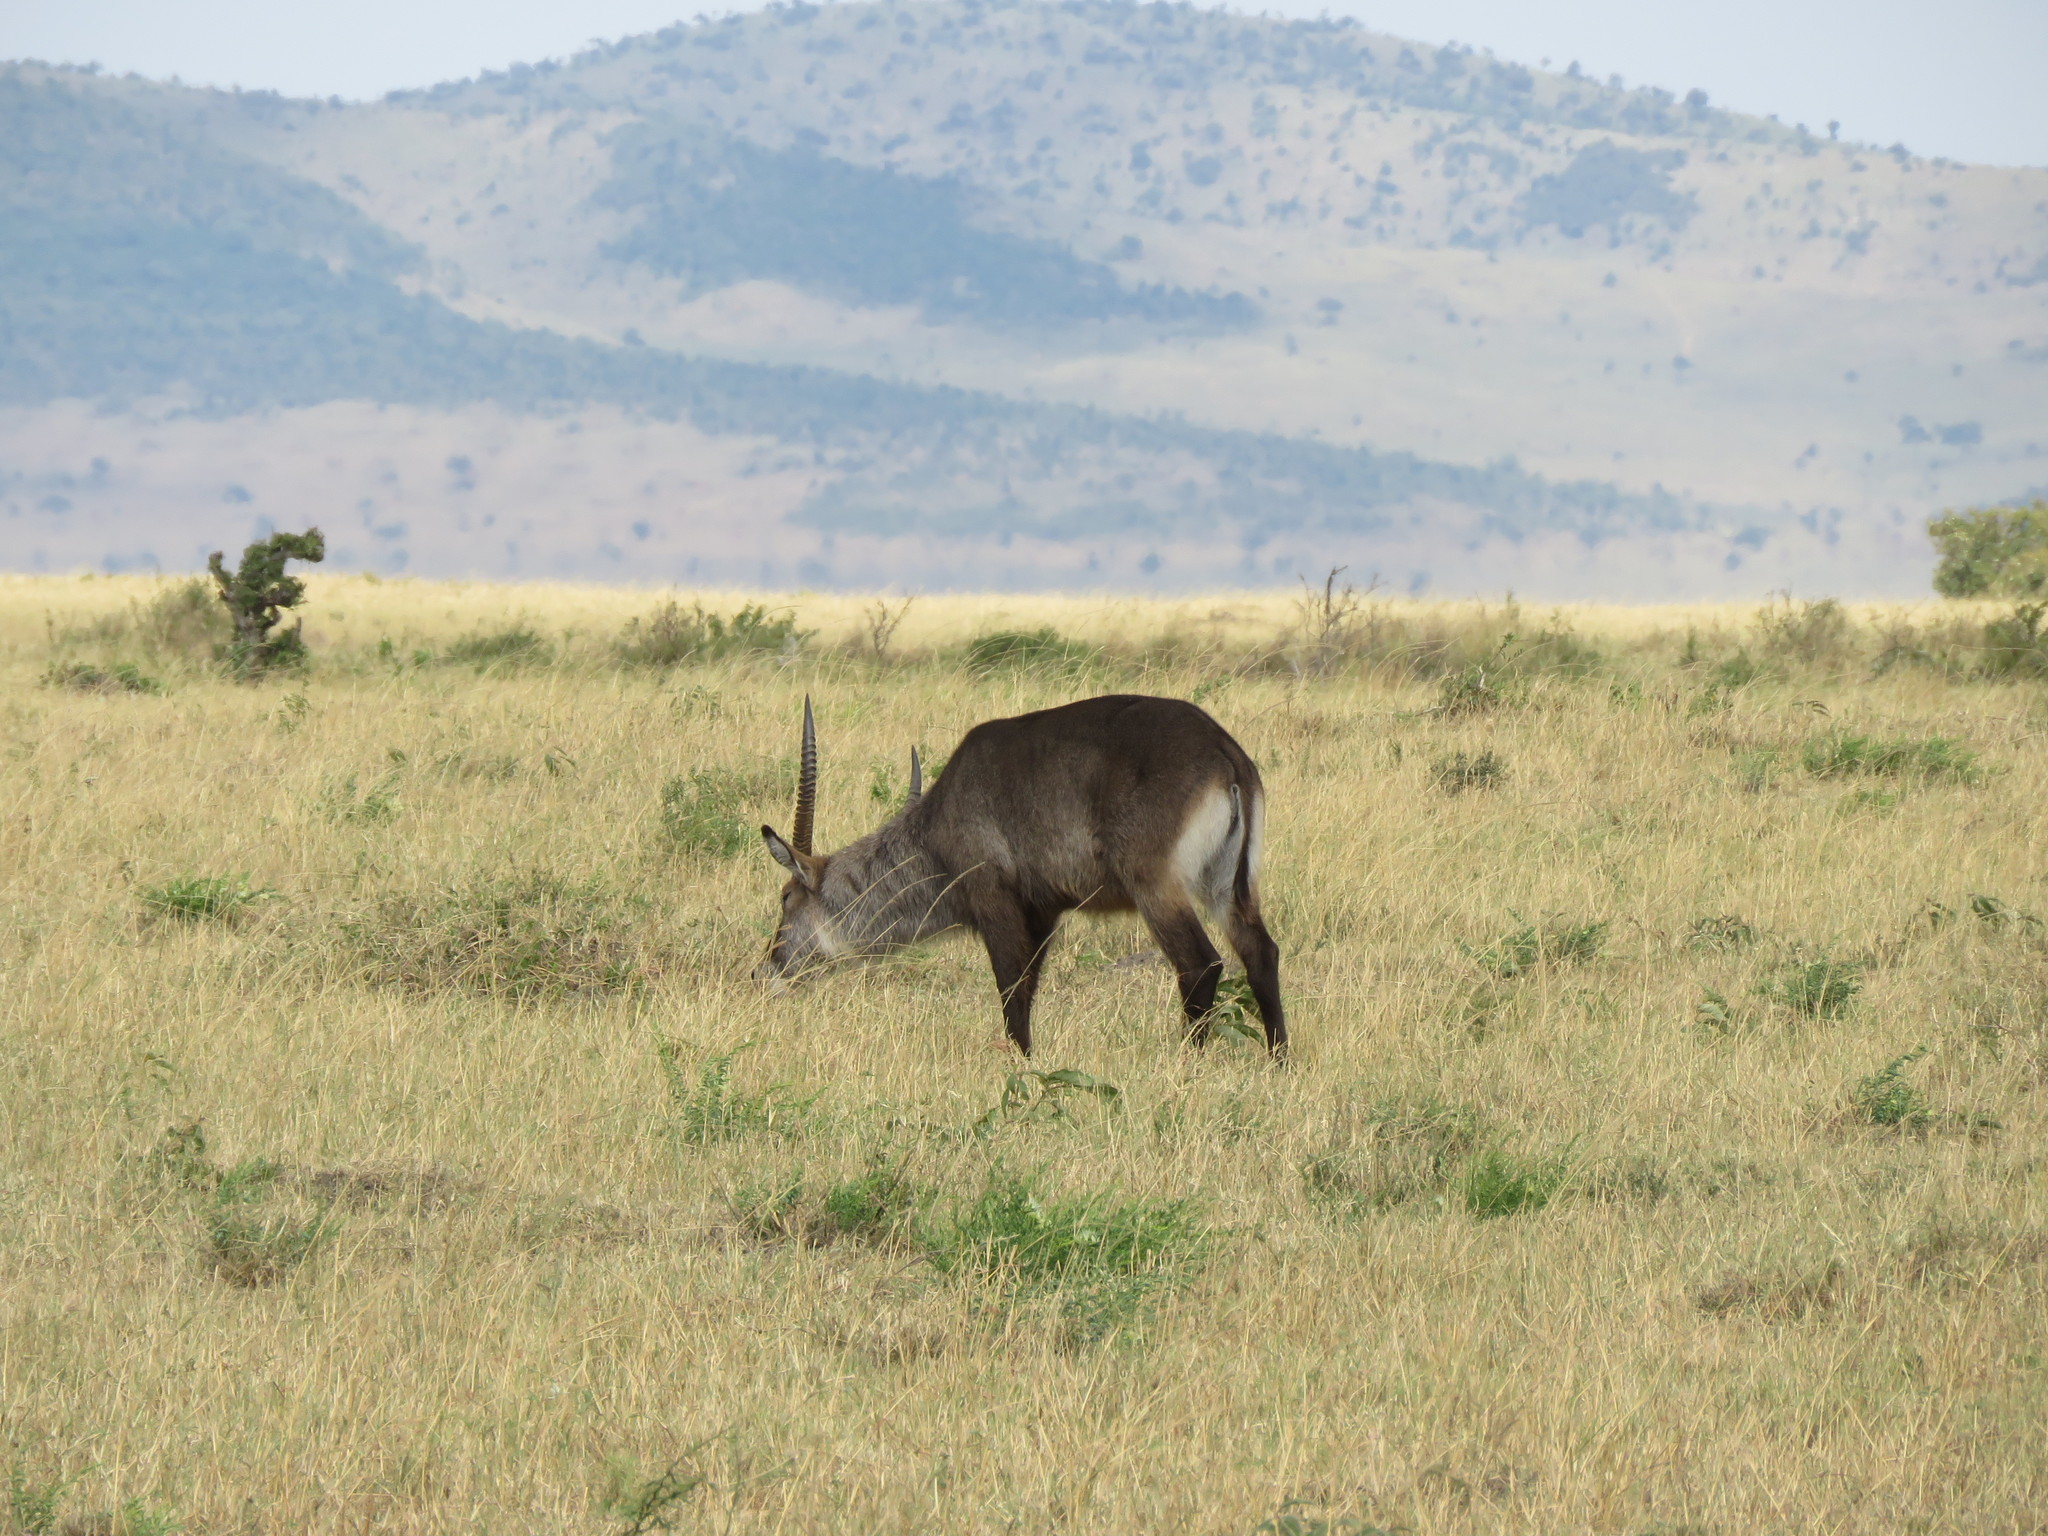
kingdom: Animalia
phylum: Chordata
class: Mammalia
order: Artiodactyla
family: Bovidae
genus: Kobus
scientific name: Kobus ellipsiprymnus
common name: Waterbuck
